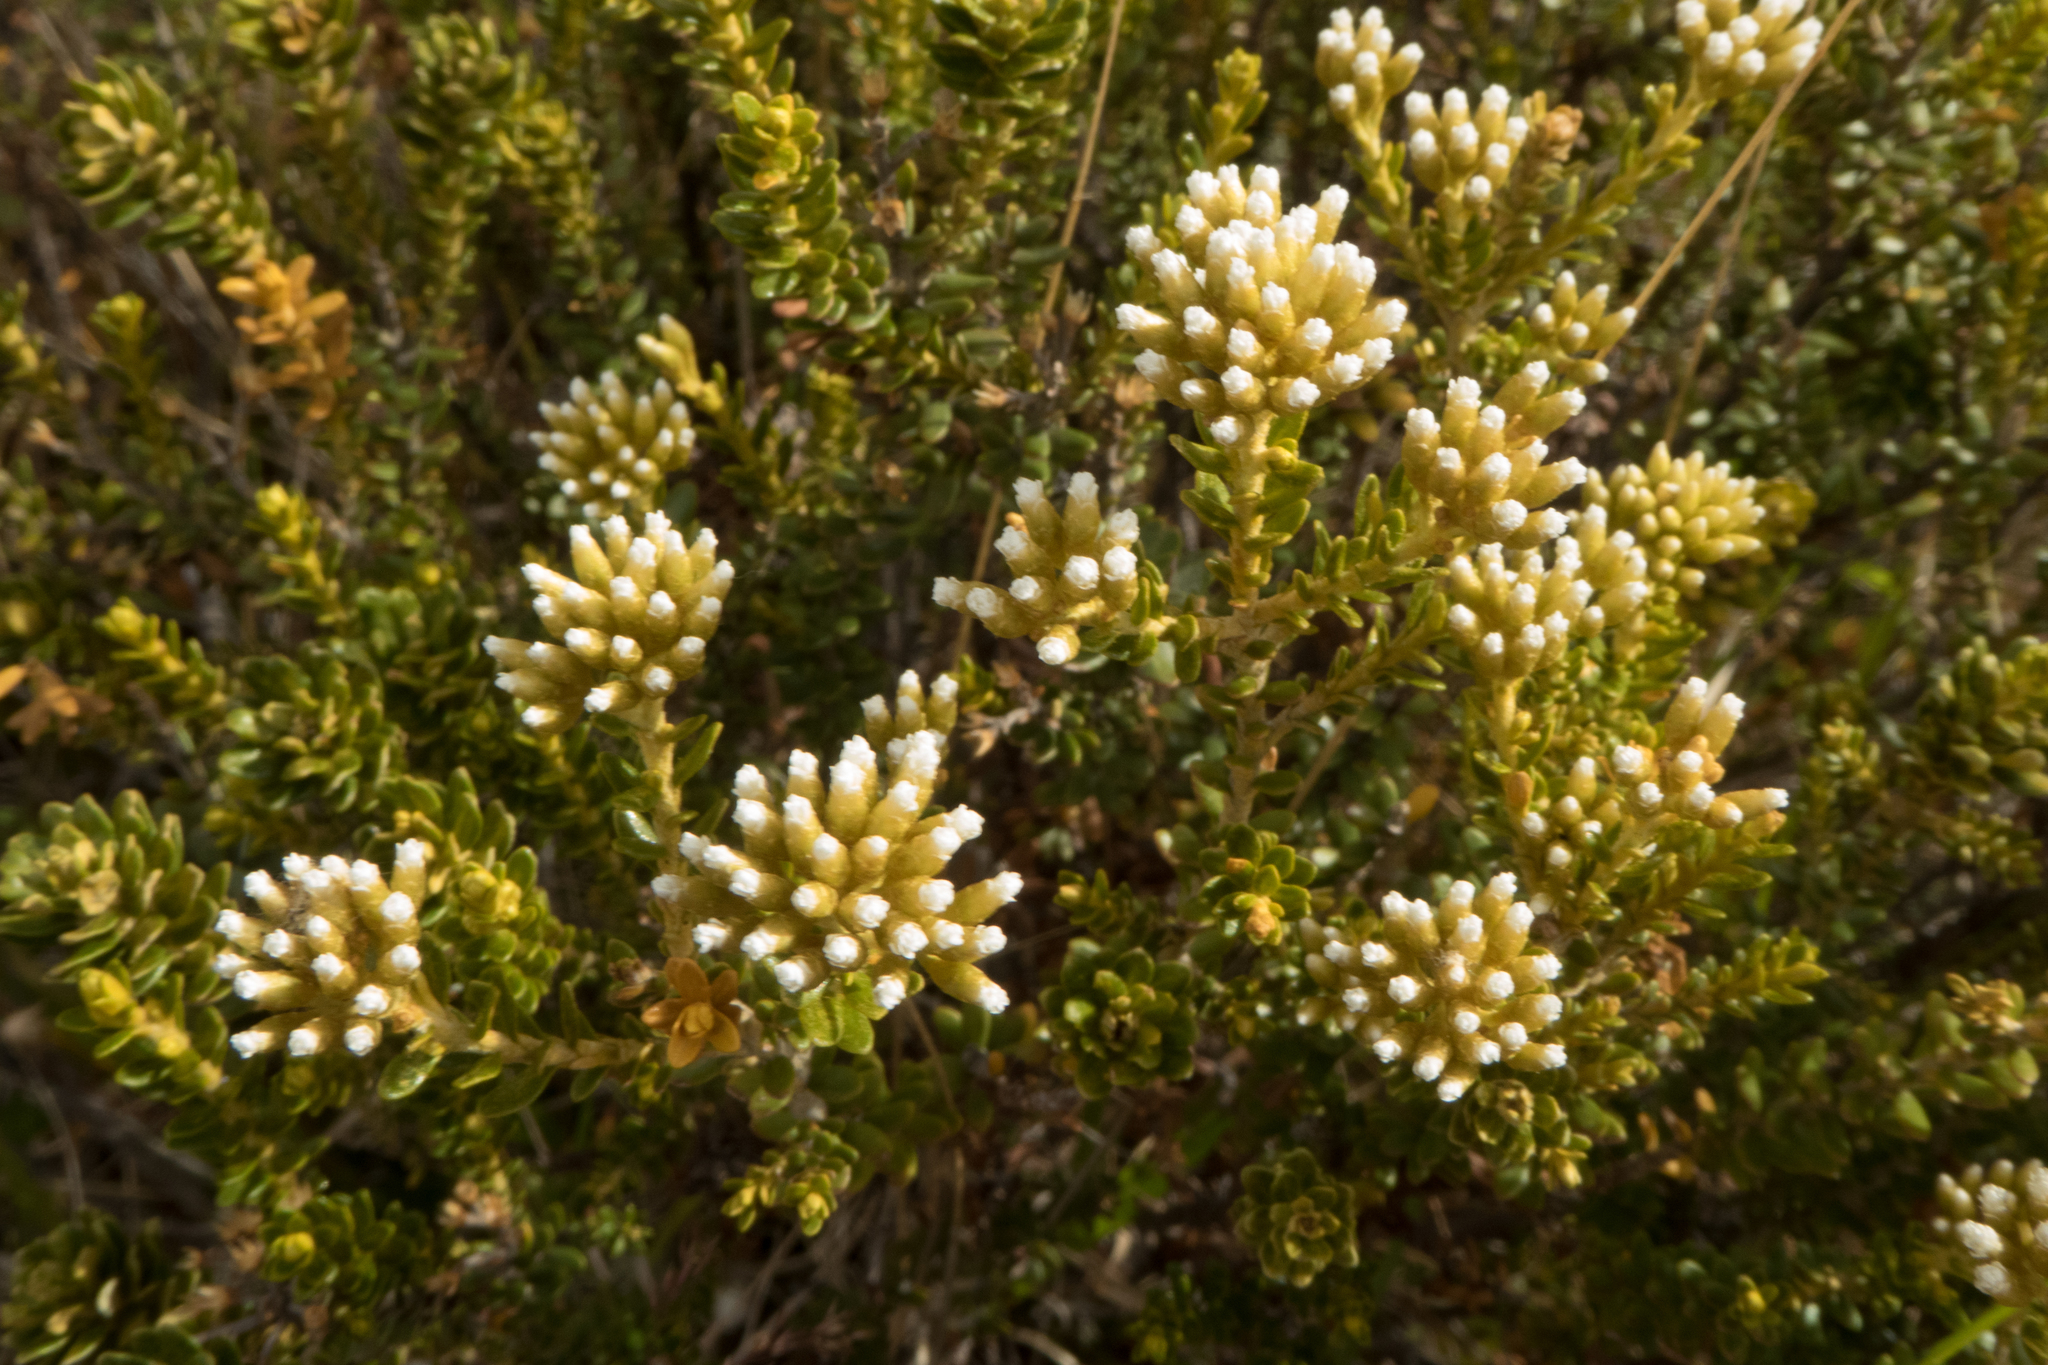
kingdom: Plantae
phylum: Tracheophyta
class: Magnoliopsida
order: Asterales
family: Asteraceae
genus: Ozothamnus
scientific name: Ozothamnus leptophyllus
